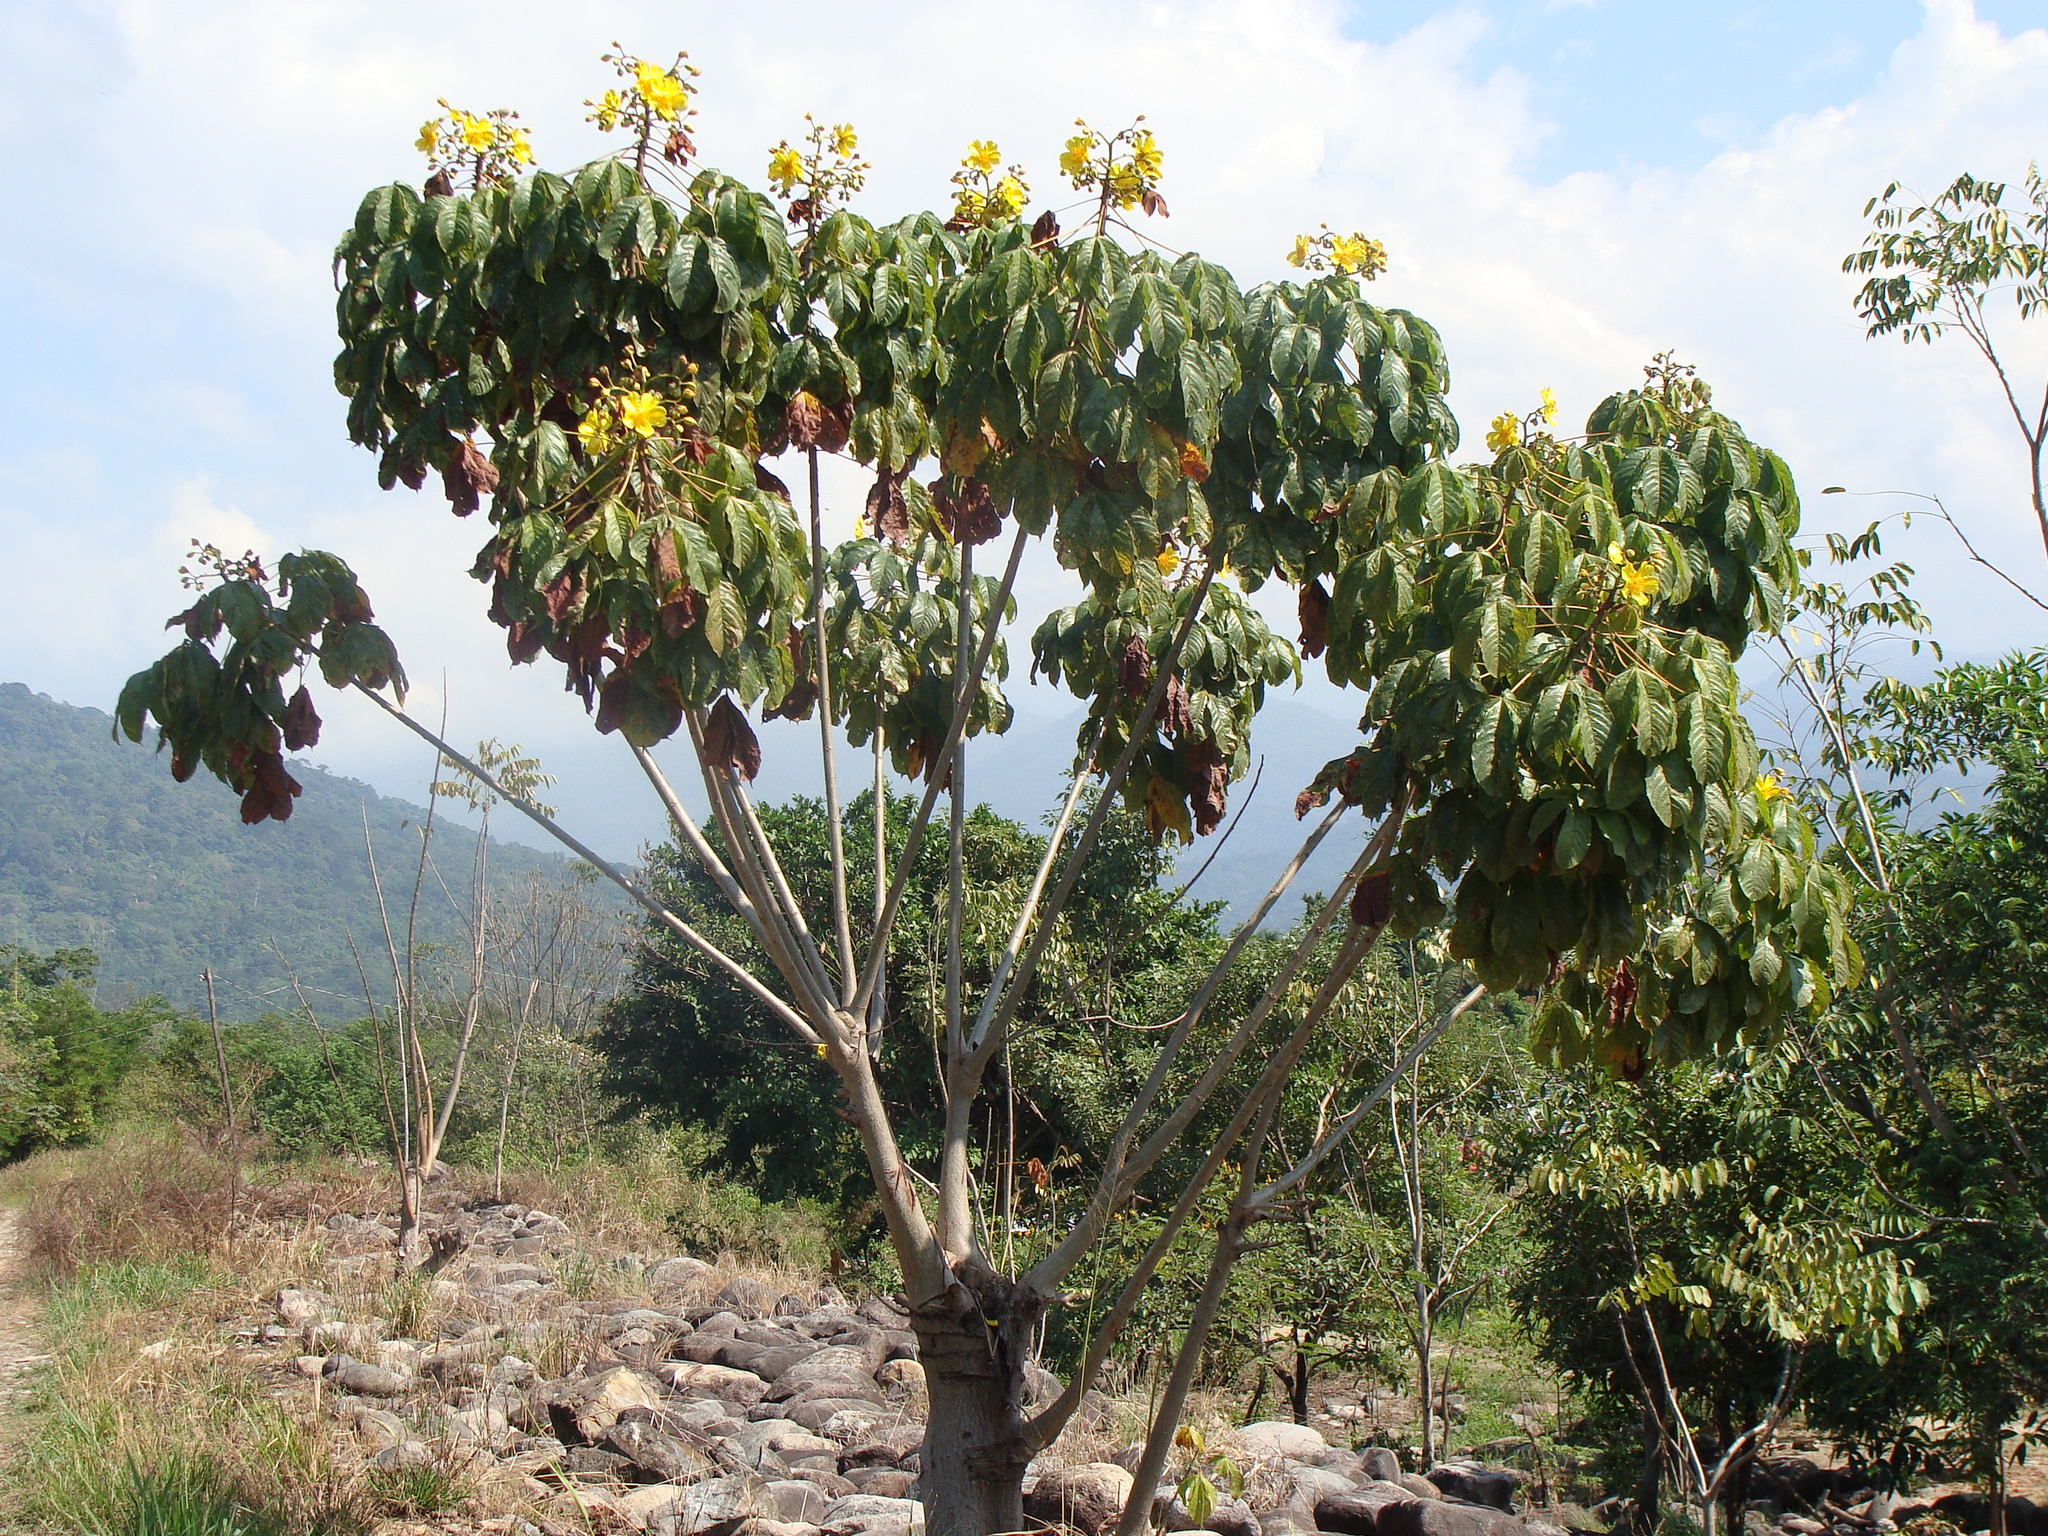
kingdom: Plantae
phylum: Tracheophyta
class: Magnoliopsida
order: Malvales
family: Cochlospermaceae
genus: Cochlospermum
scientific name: Cochlospermum vitifolium
